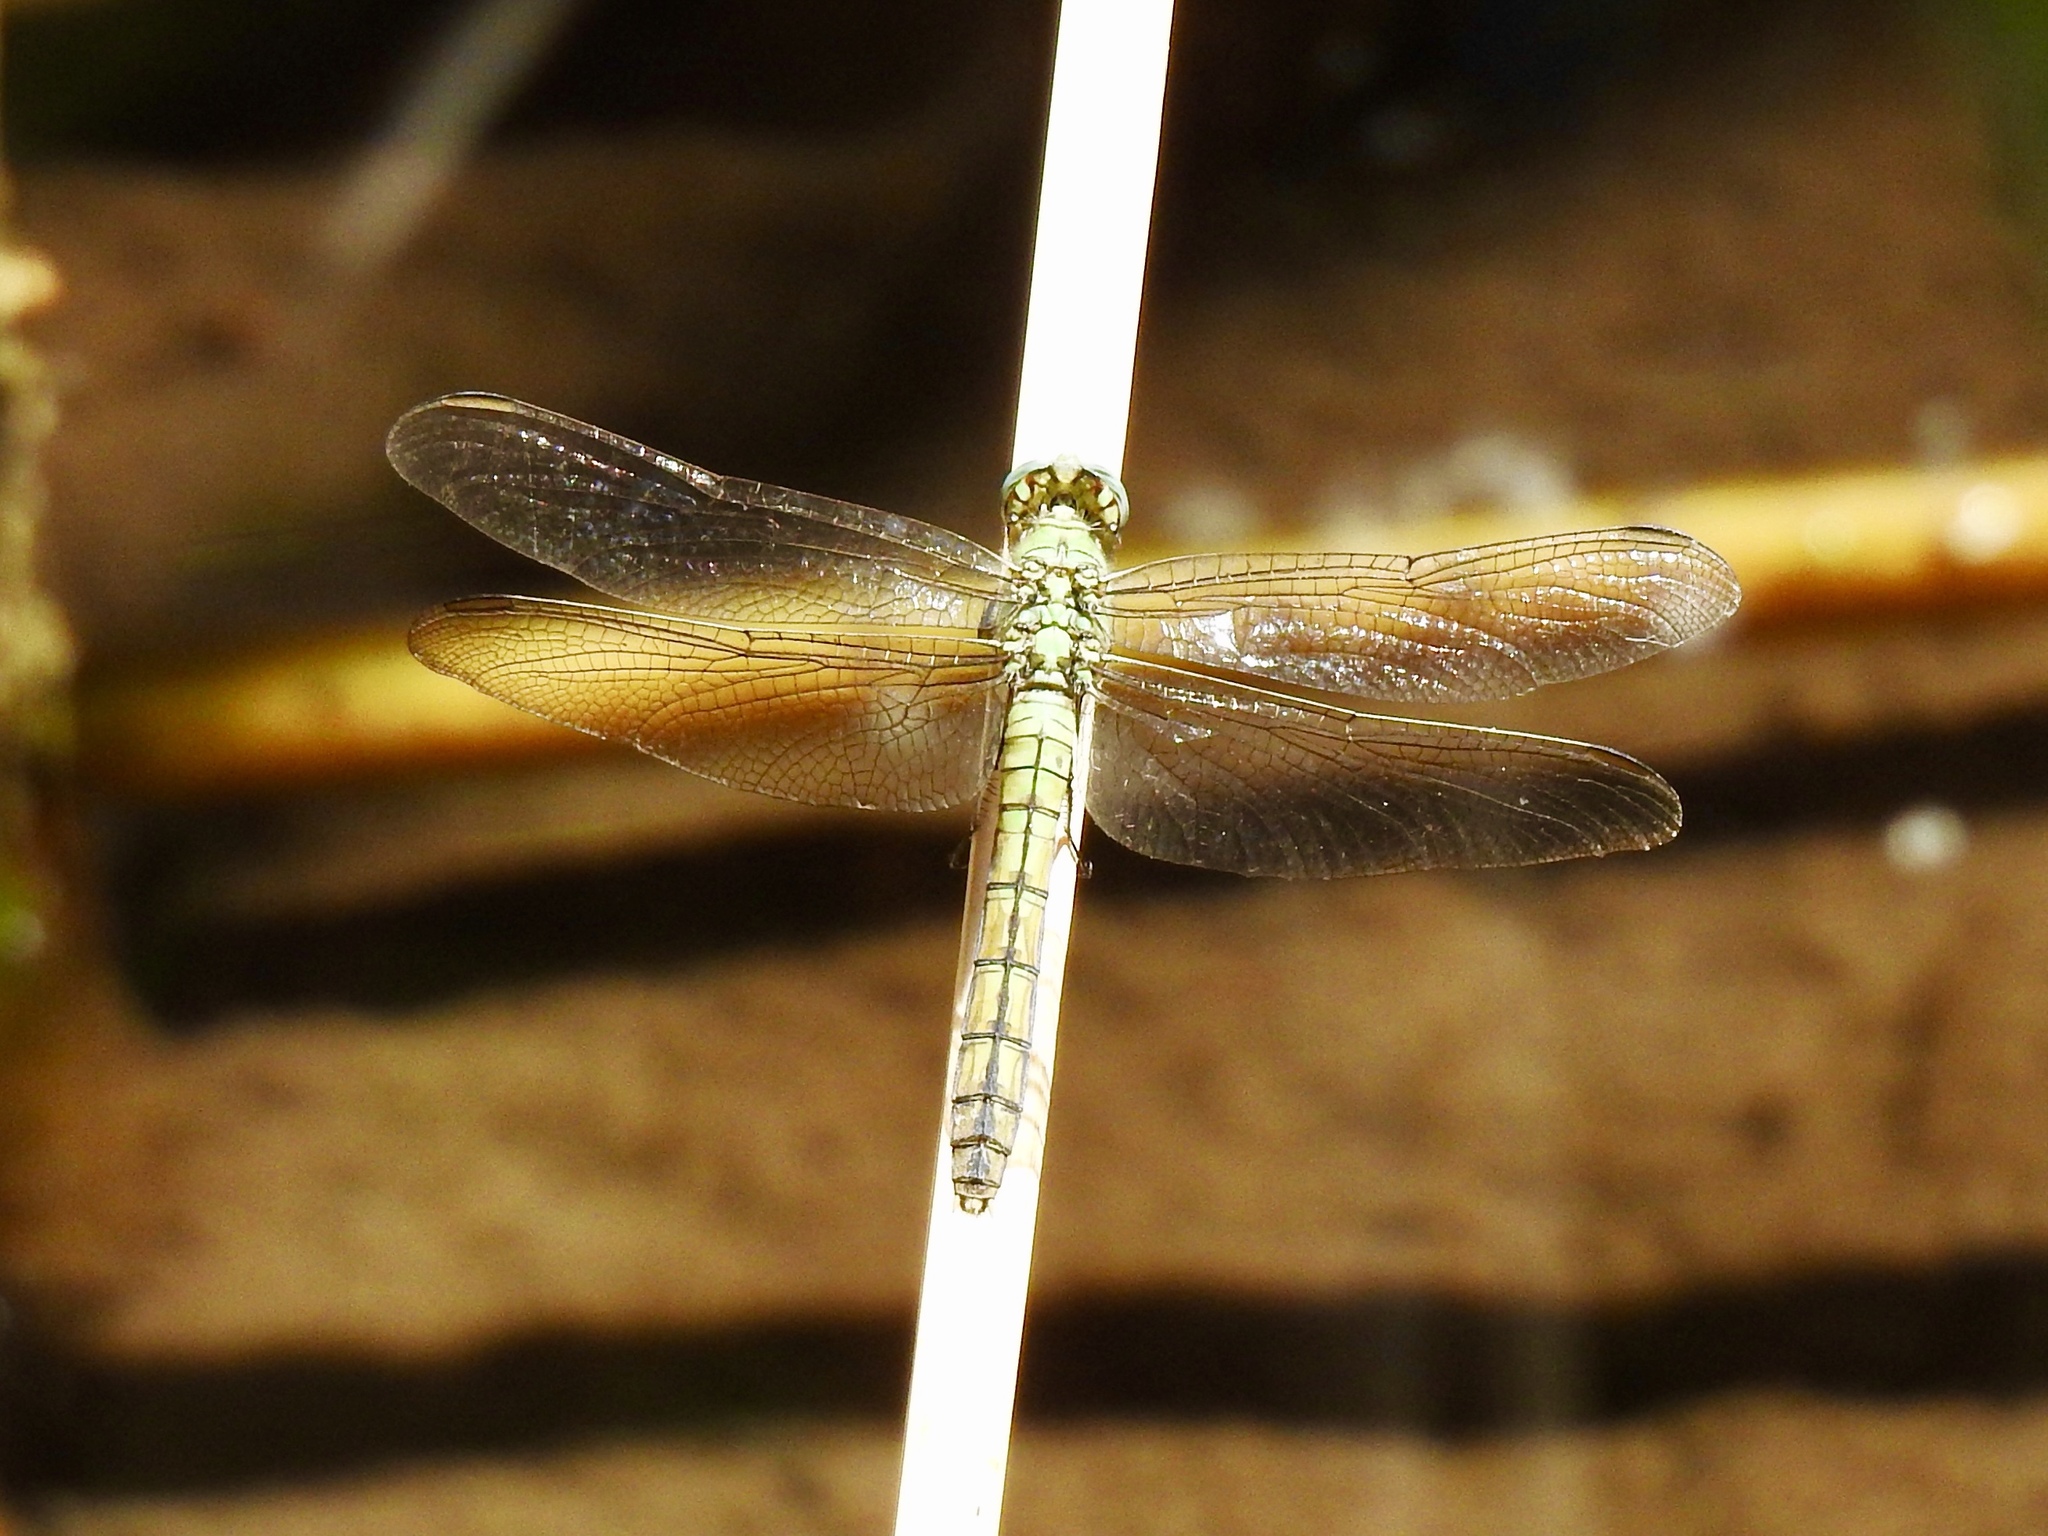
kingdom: Animalia
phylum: Arthropoda
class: Insecta
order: Odonata
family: Libellulidae
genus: Erythemis
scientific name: Erythemis collocata
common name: Western pondhawk
